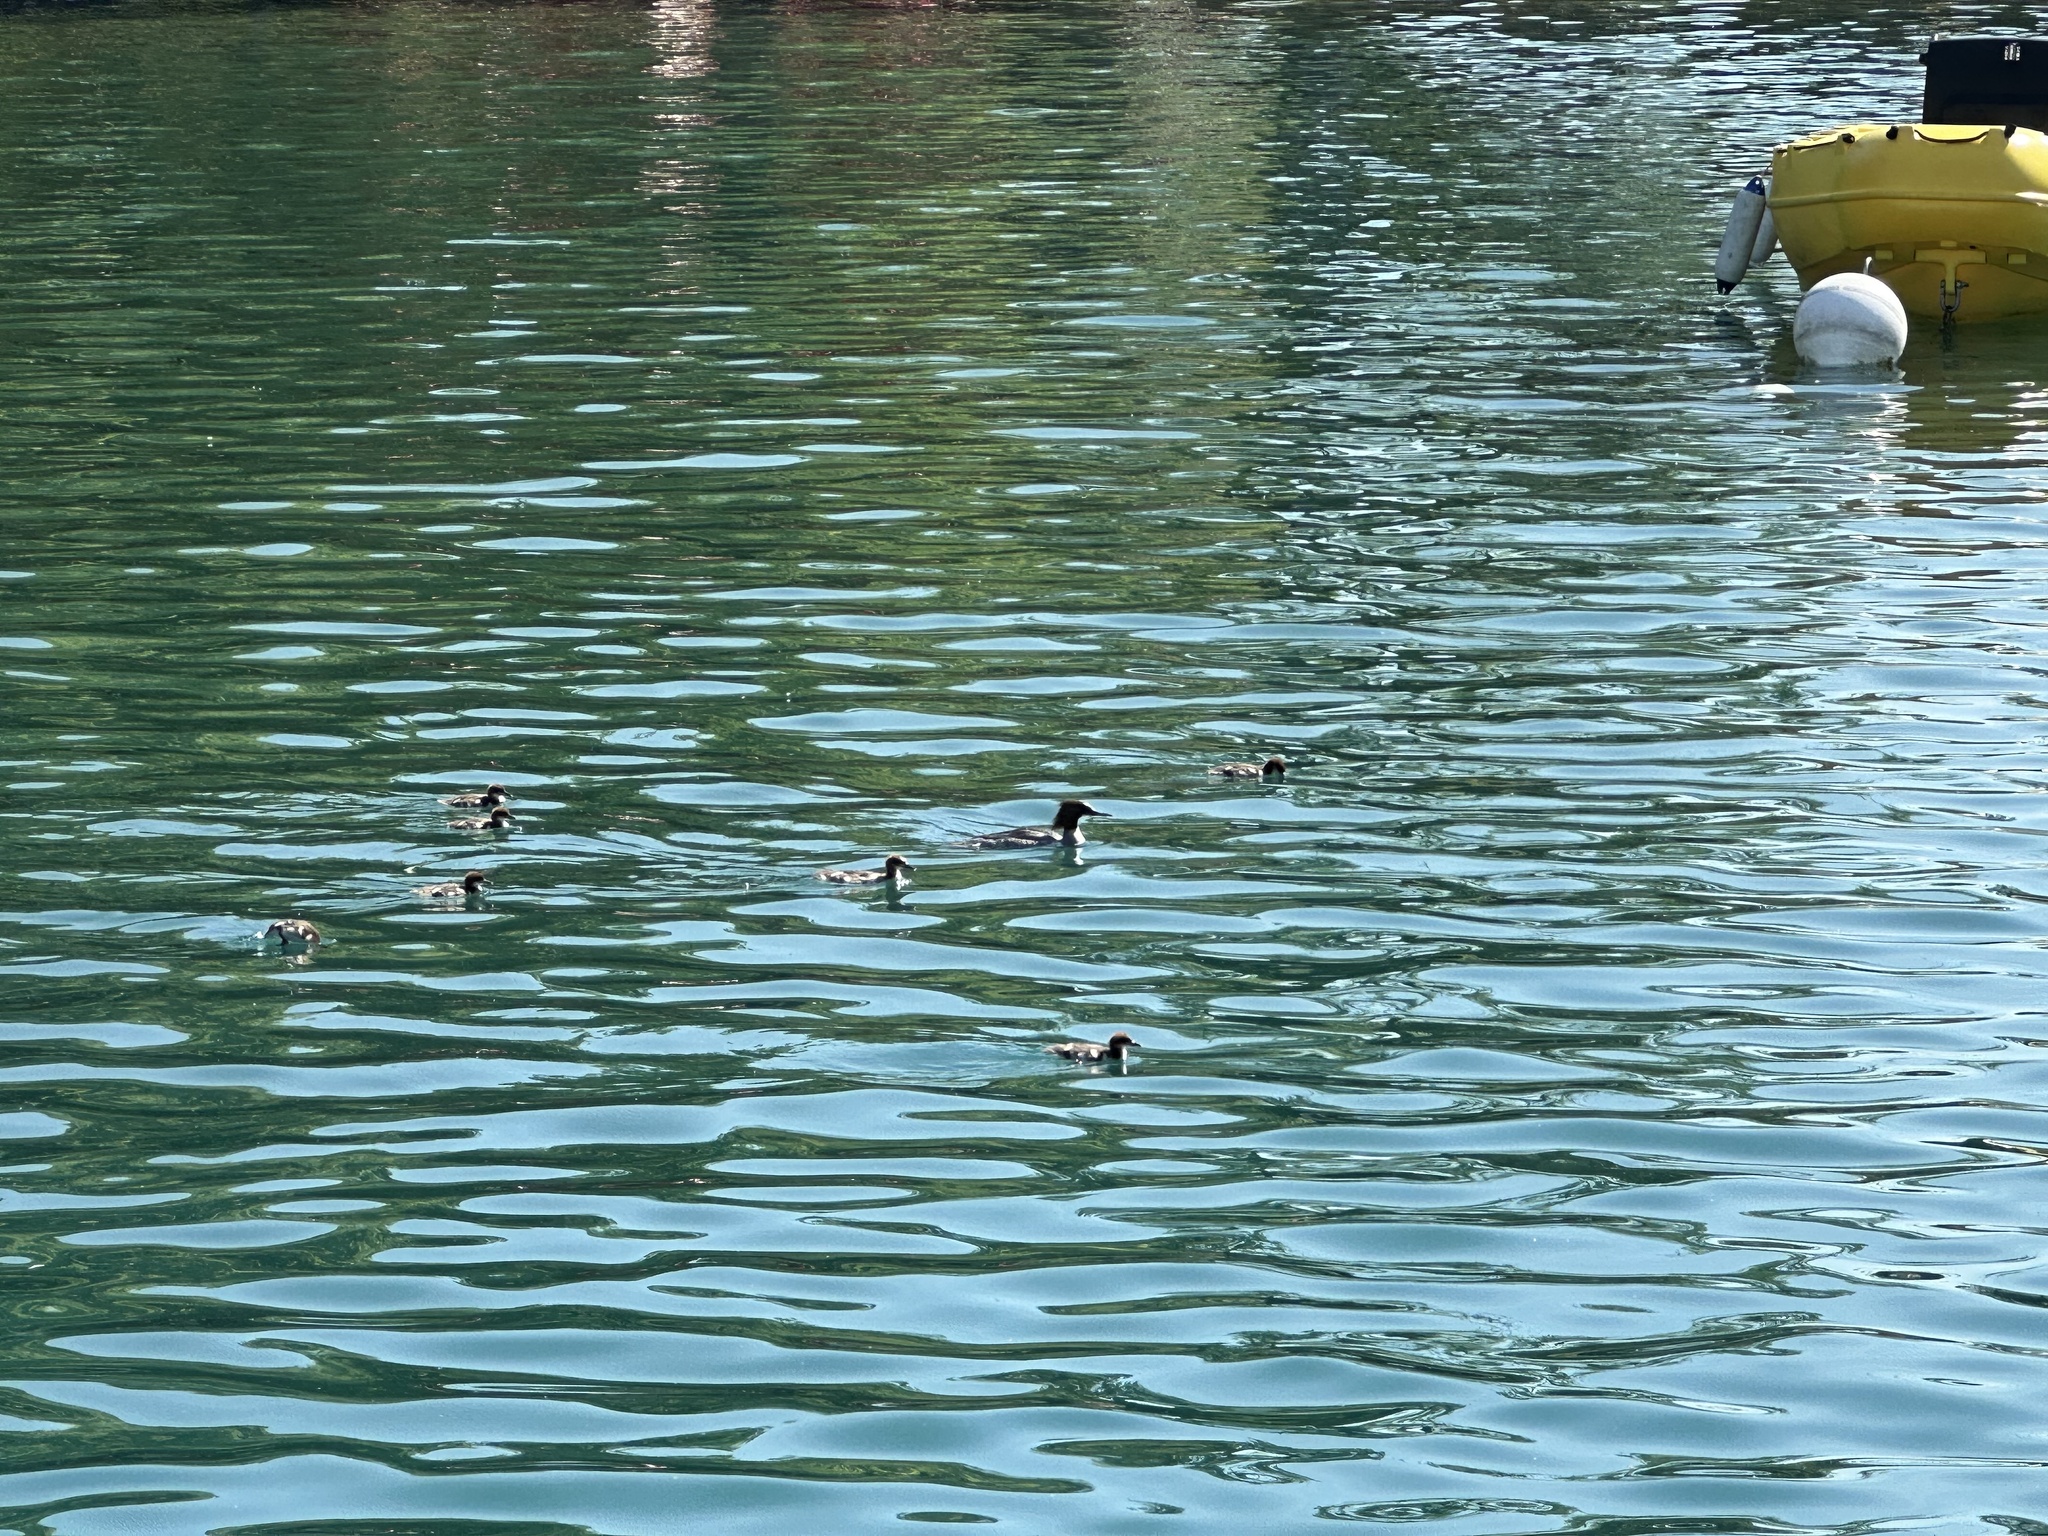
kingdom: Animalia
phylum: Chordata
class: Aves
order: Anseriformes
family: Anatidae
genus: Mergus
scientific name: Mergus merganser
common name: Common merganser
